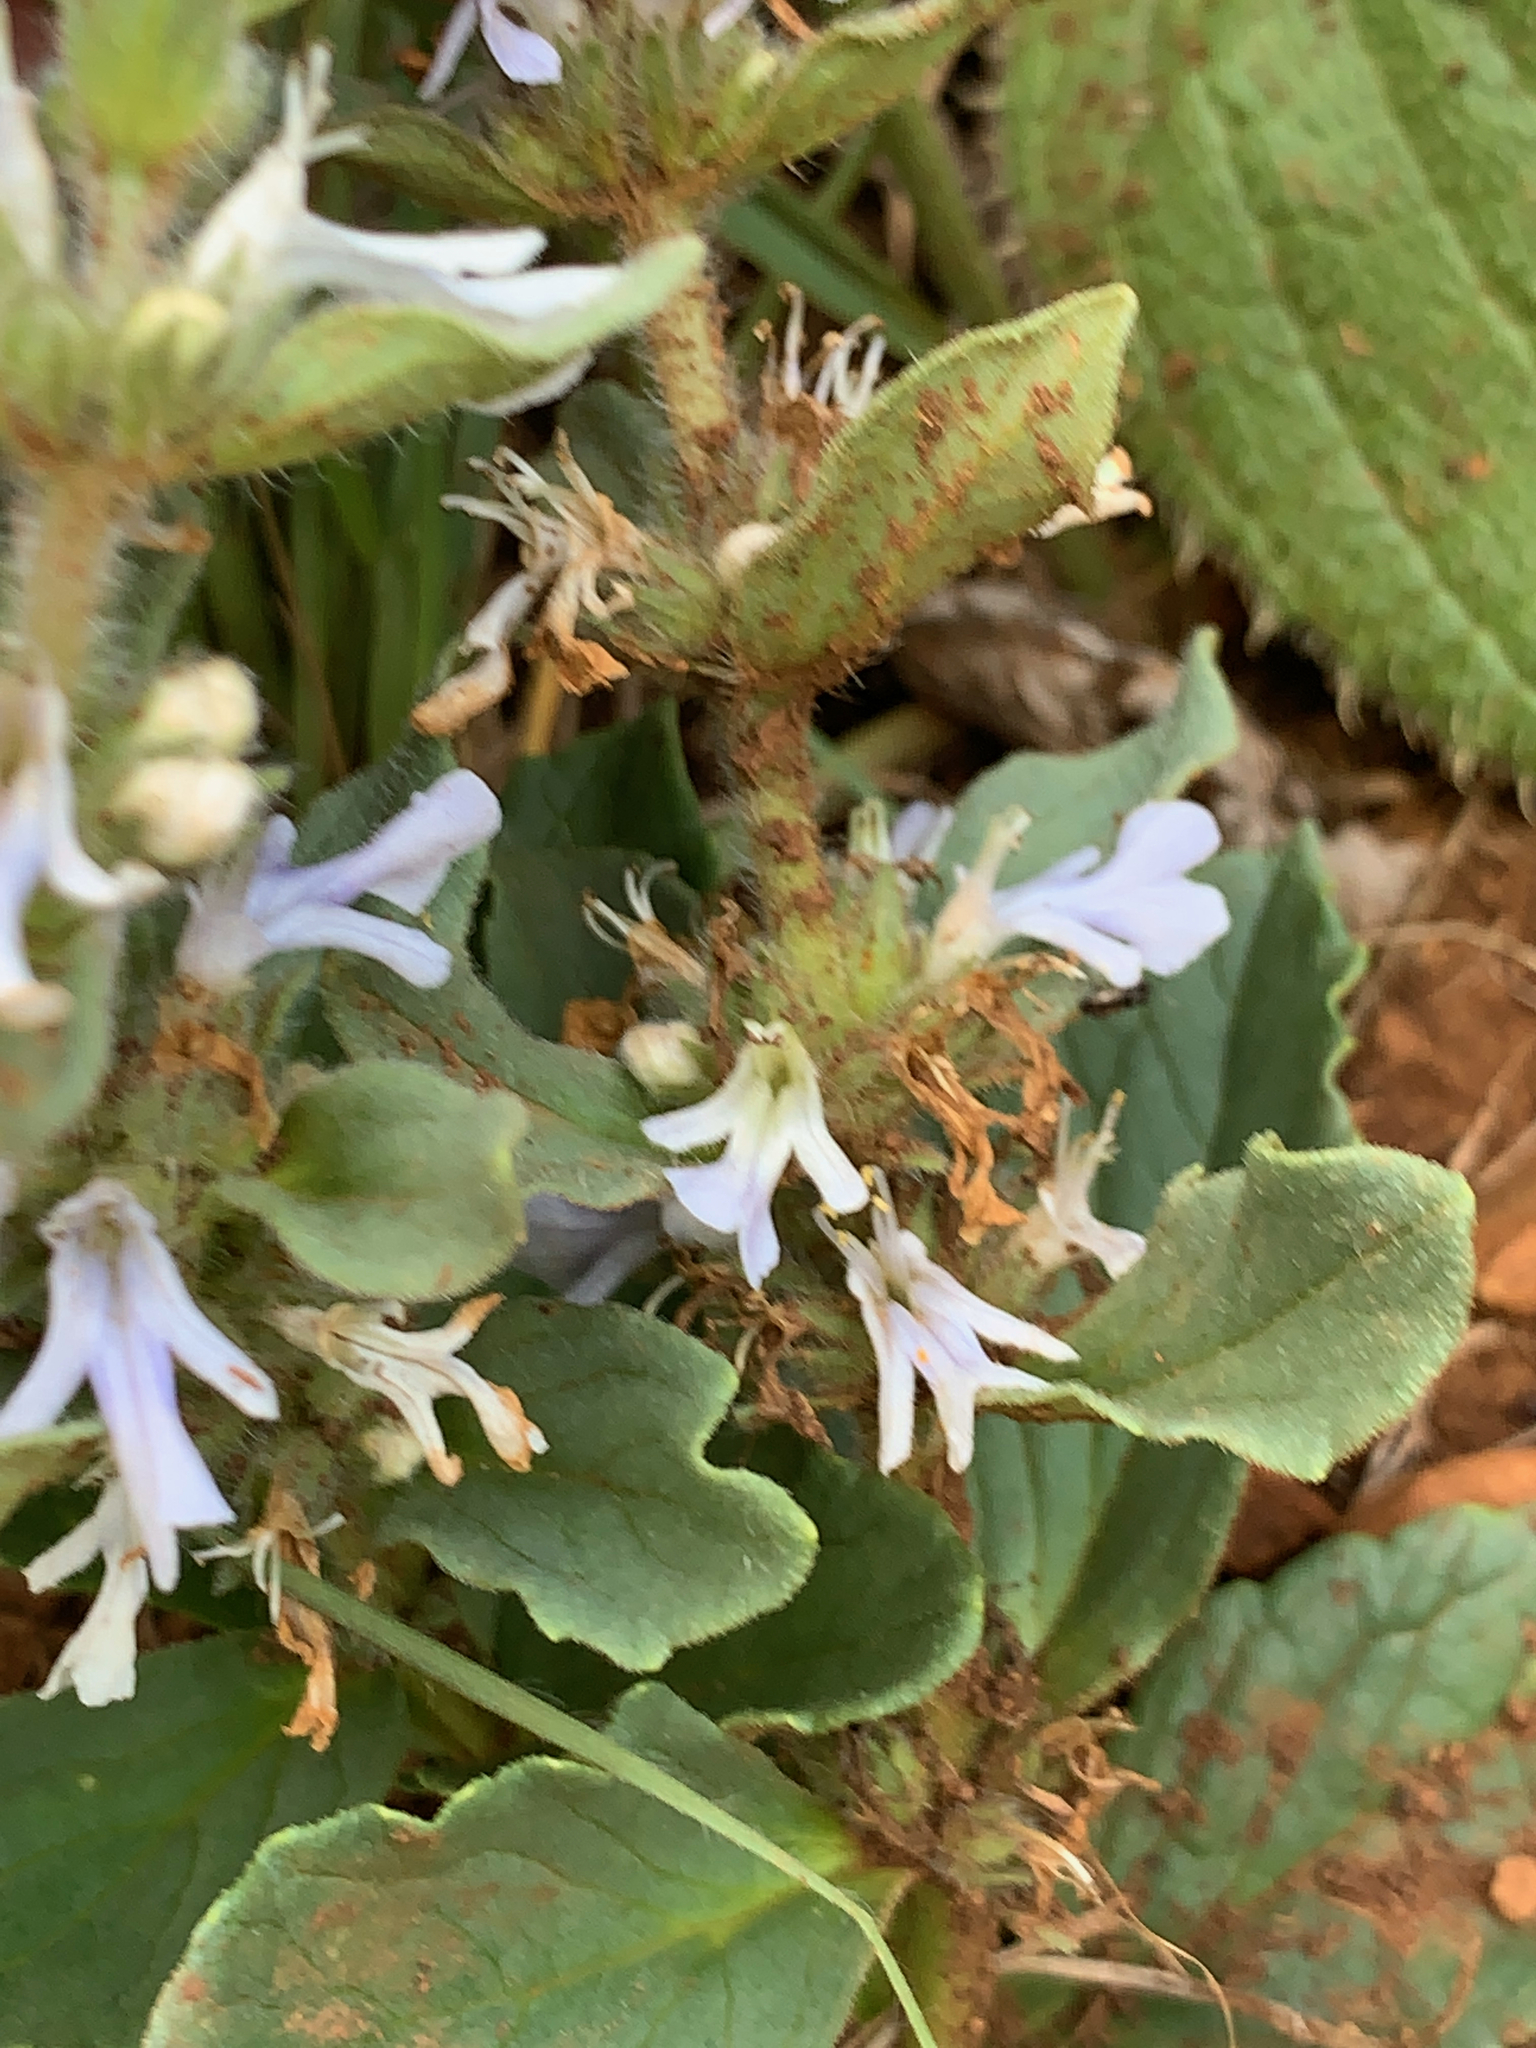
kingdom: Plantae
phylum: Tracheophyta
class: Magnoliopsida
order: Lamiales
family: Lamiaceae
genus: Ajuga
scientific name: Ajuga ophrydis
